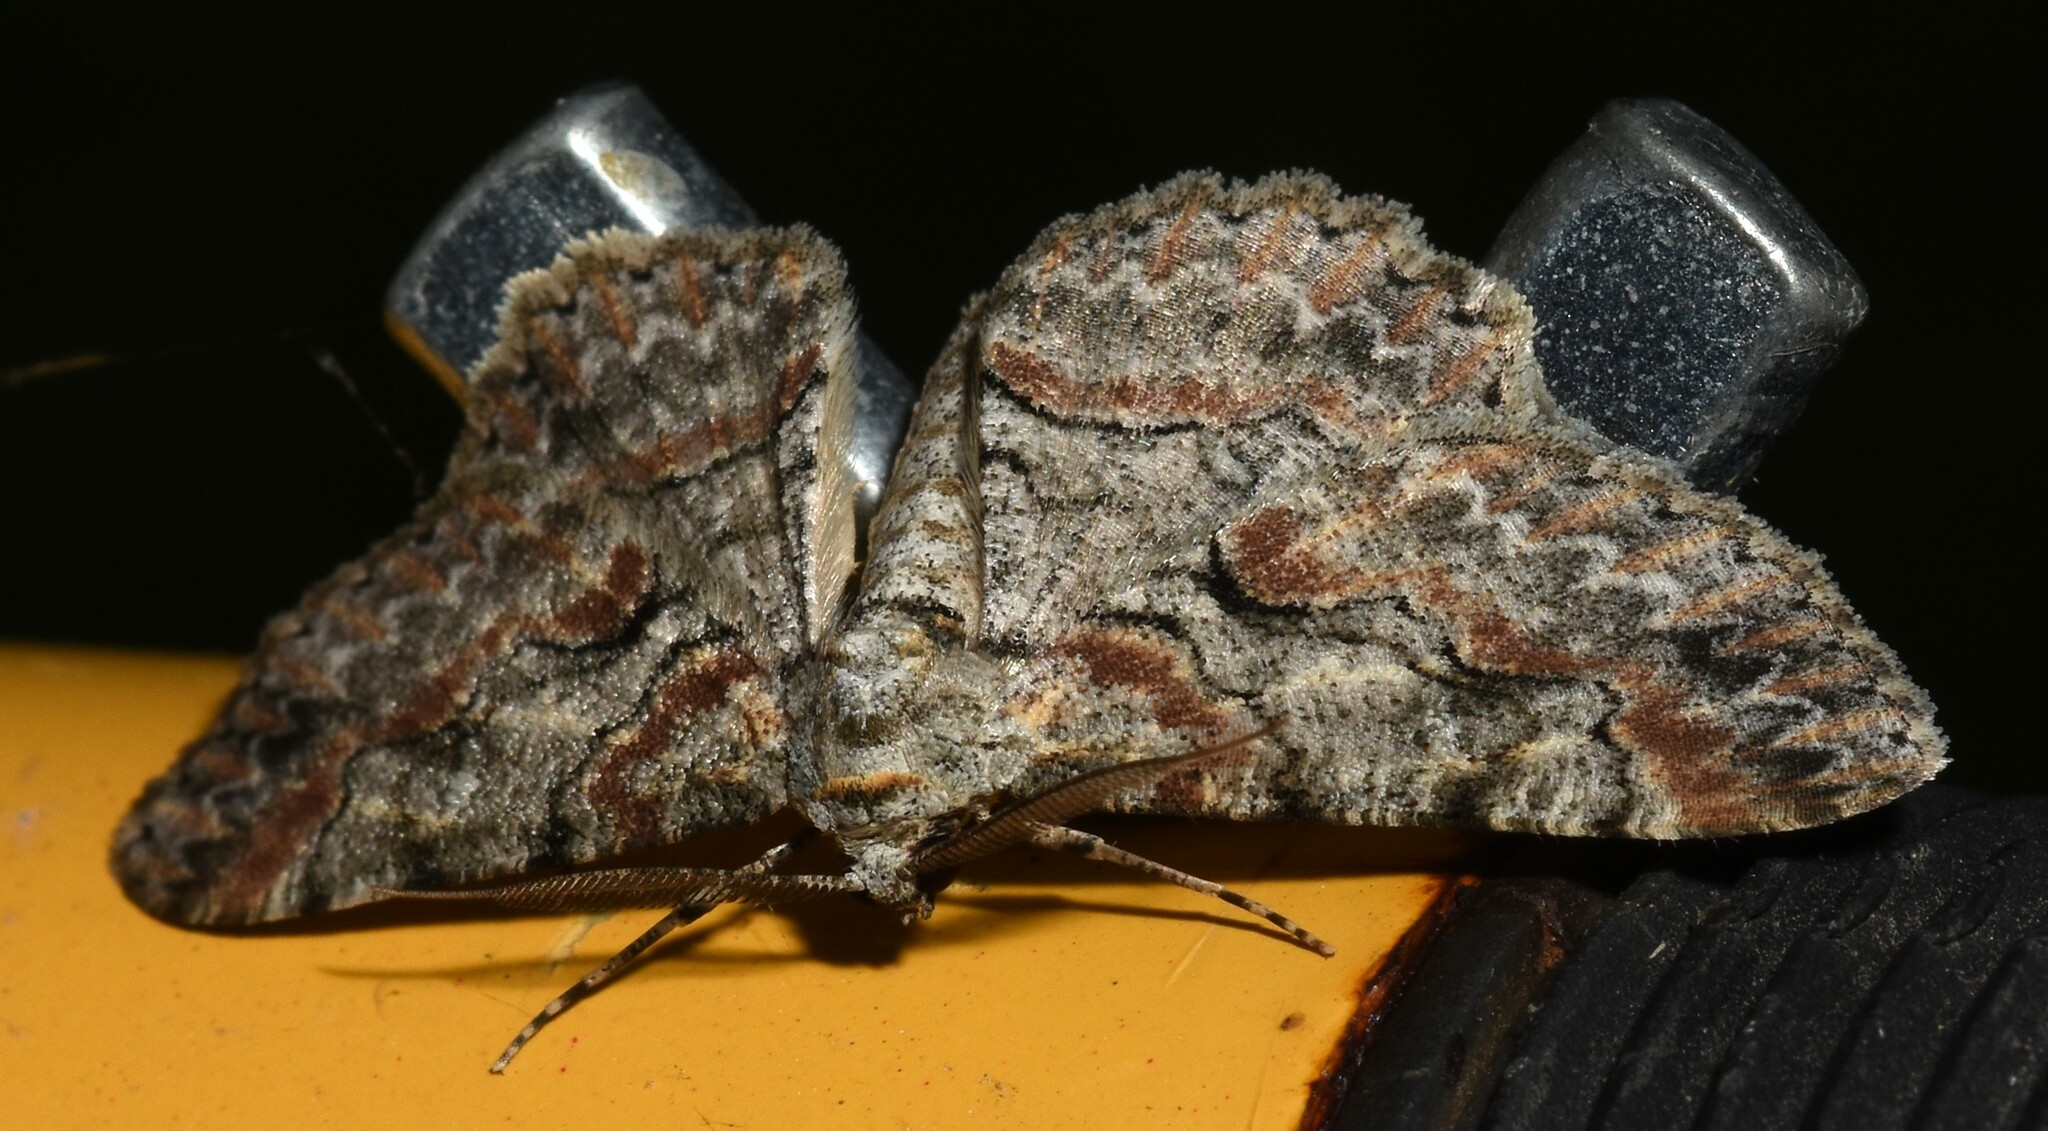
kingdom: Animalia
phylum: Arthropoda
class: Insecta
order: Lepidoptera
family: Geometridae
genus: Iridopsis
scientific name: Iridopsis defectaria
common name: Brown-shaded gray
